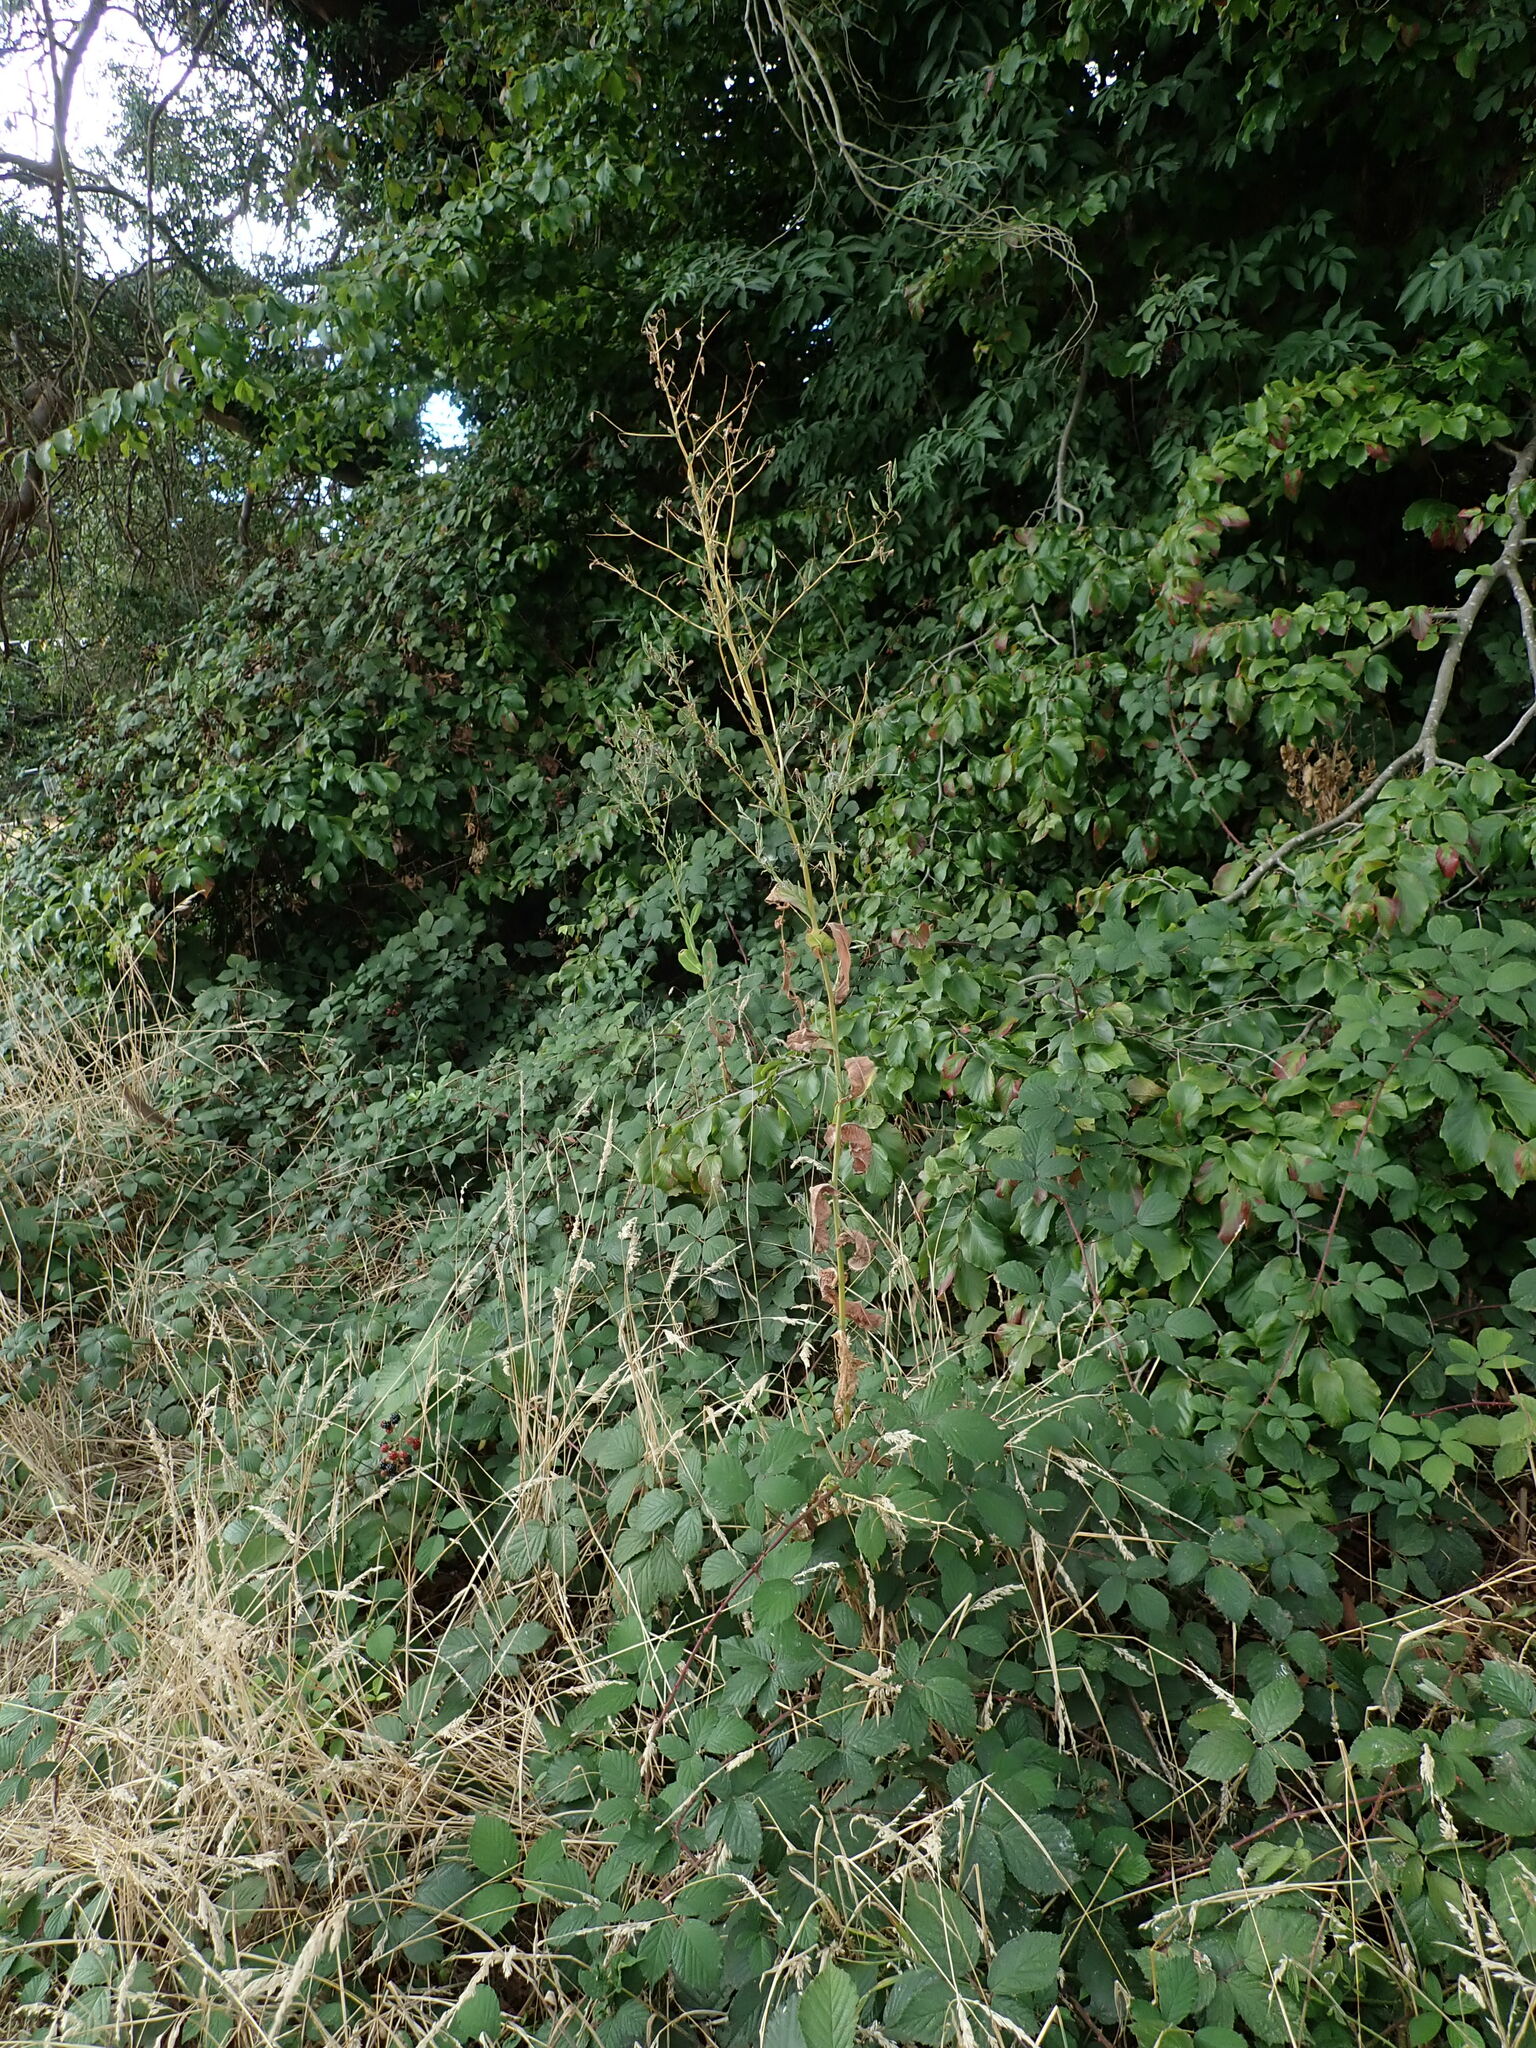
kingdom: Plantae
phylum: Tracheophyta
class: Magnoliopsida
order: Asterales
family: Asteraceae
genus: Lactuca
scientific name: Lactuca serriola
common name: Prickly lettuce
